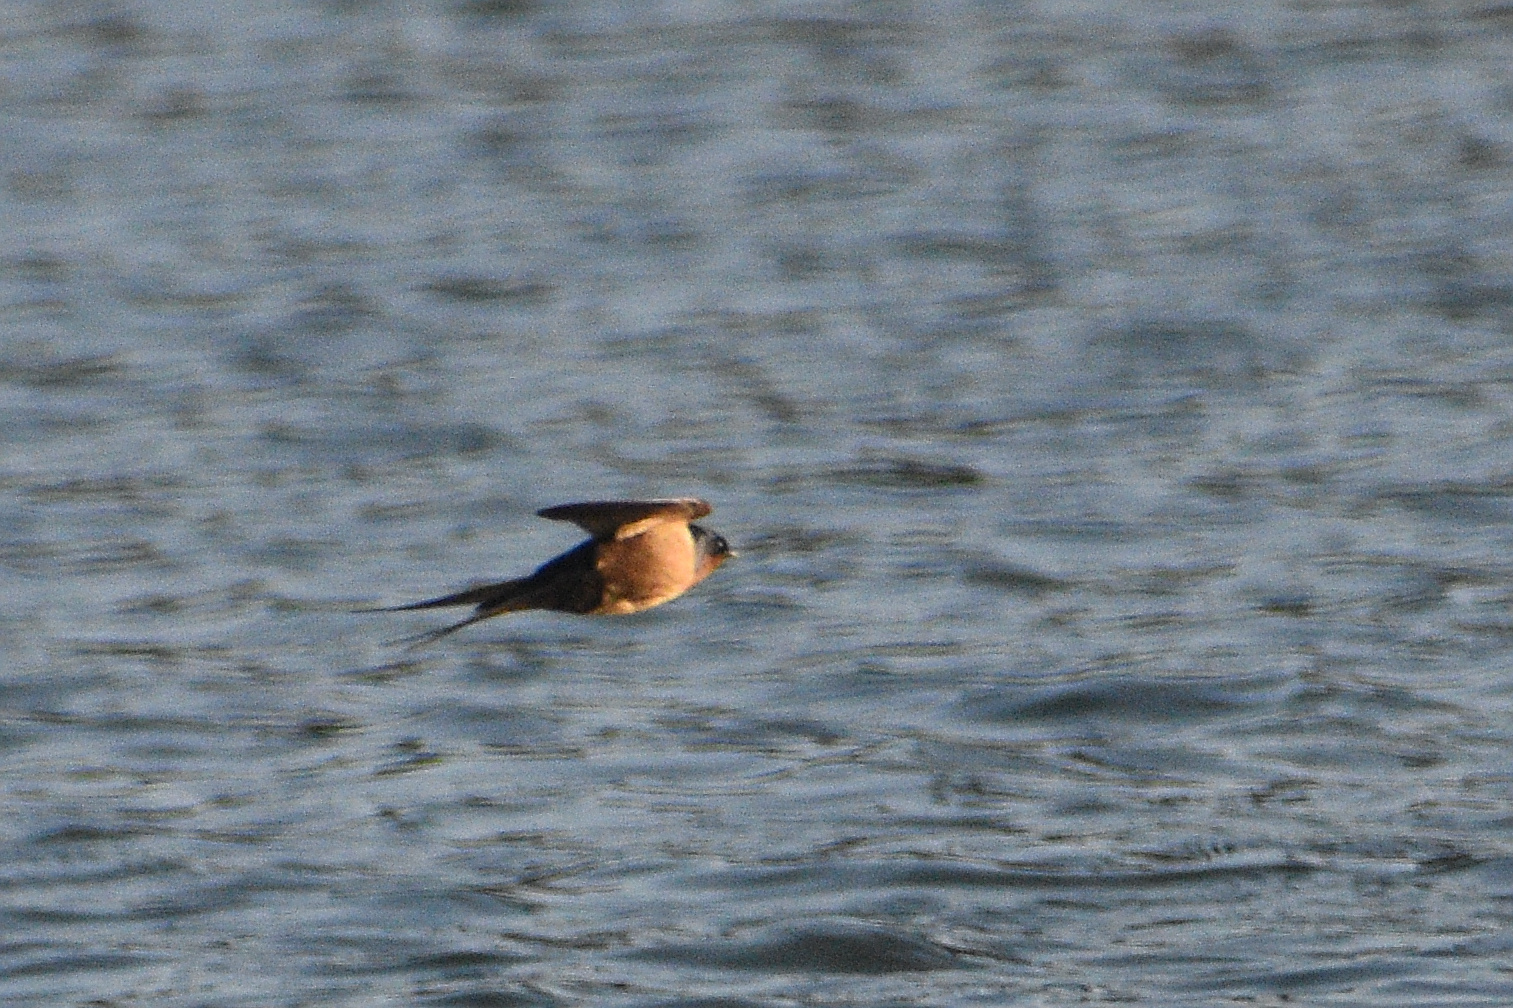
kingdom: Animalia
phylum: Chordata
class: Aves
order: Passeriformes
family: Hirundinidae
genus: Hirundo
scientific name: Hirundo rustica
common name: Barn swallow
